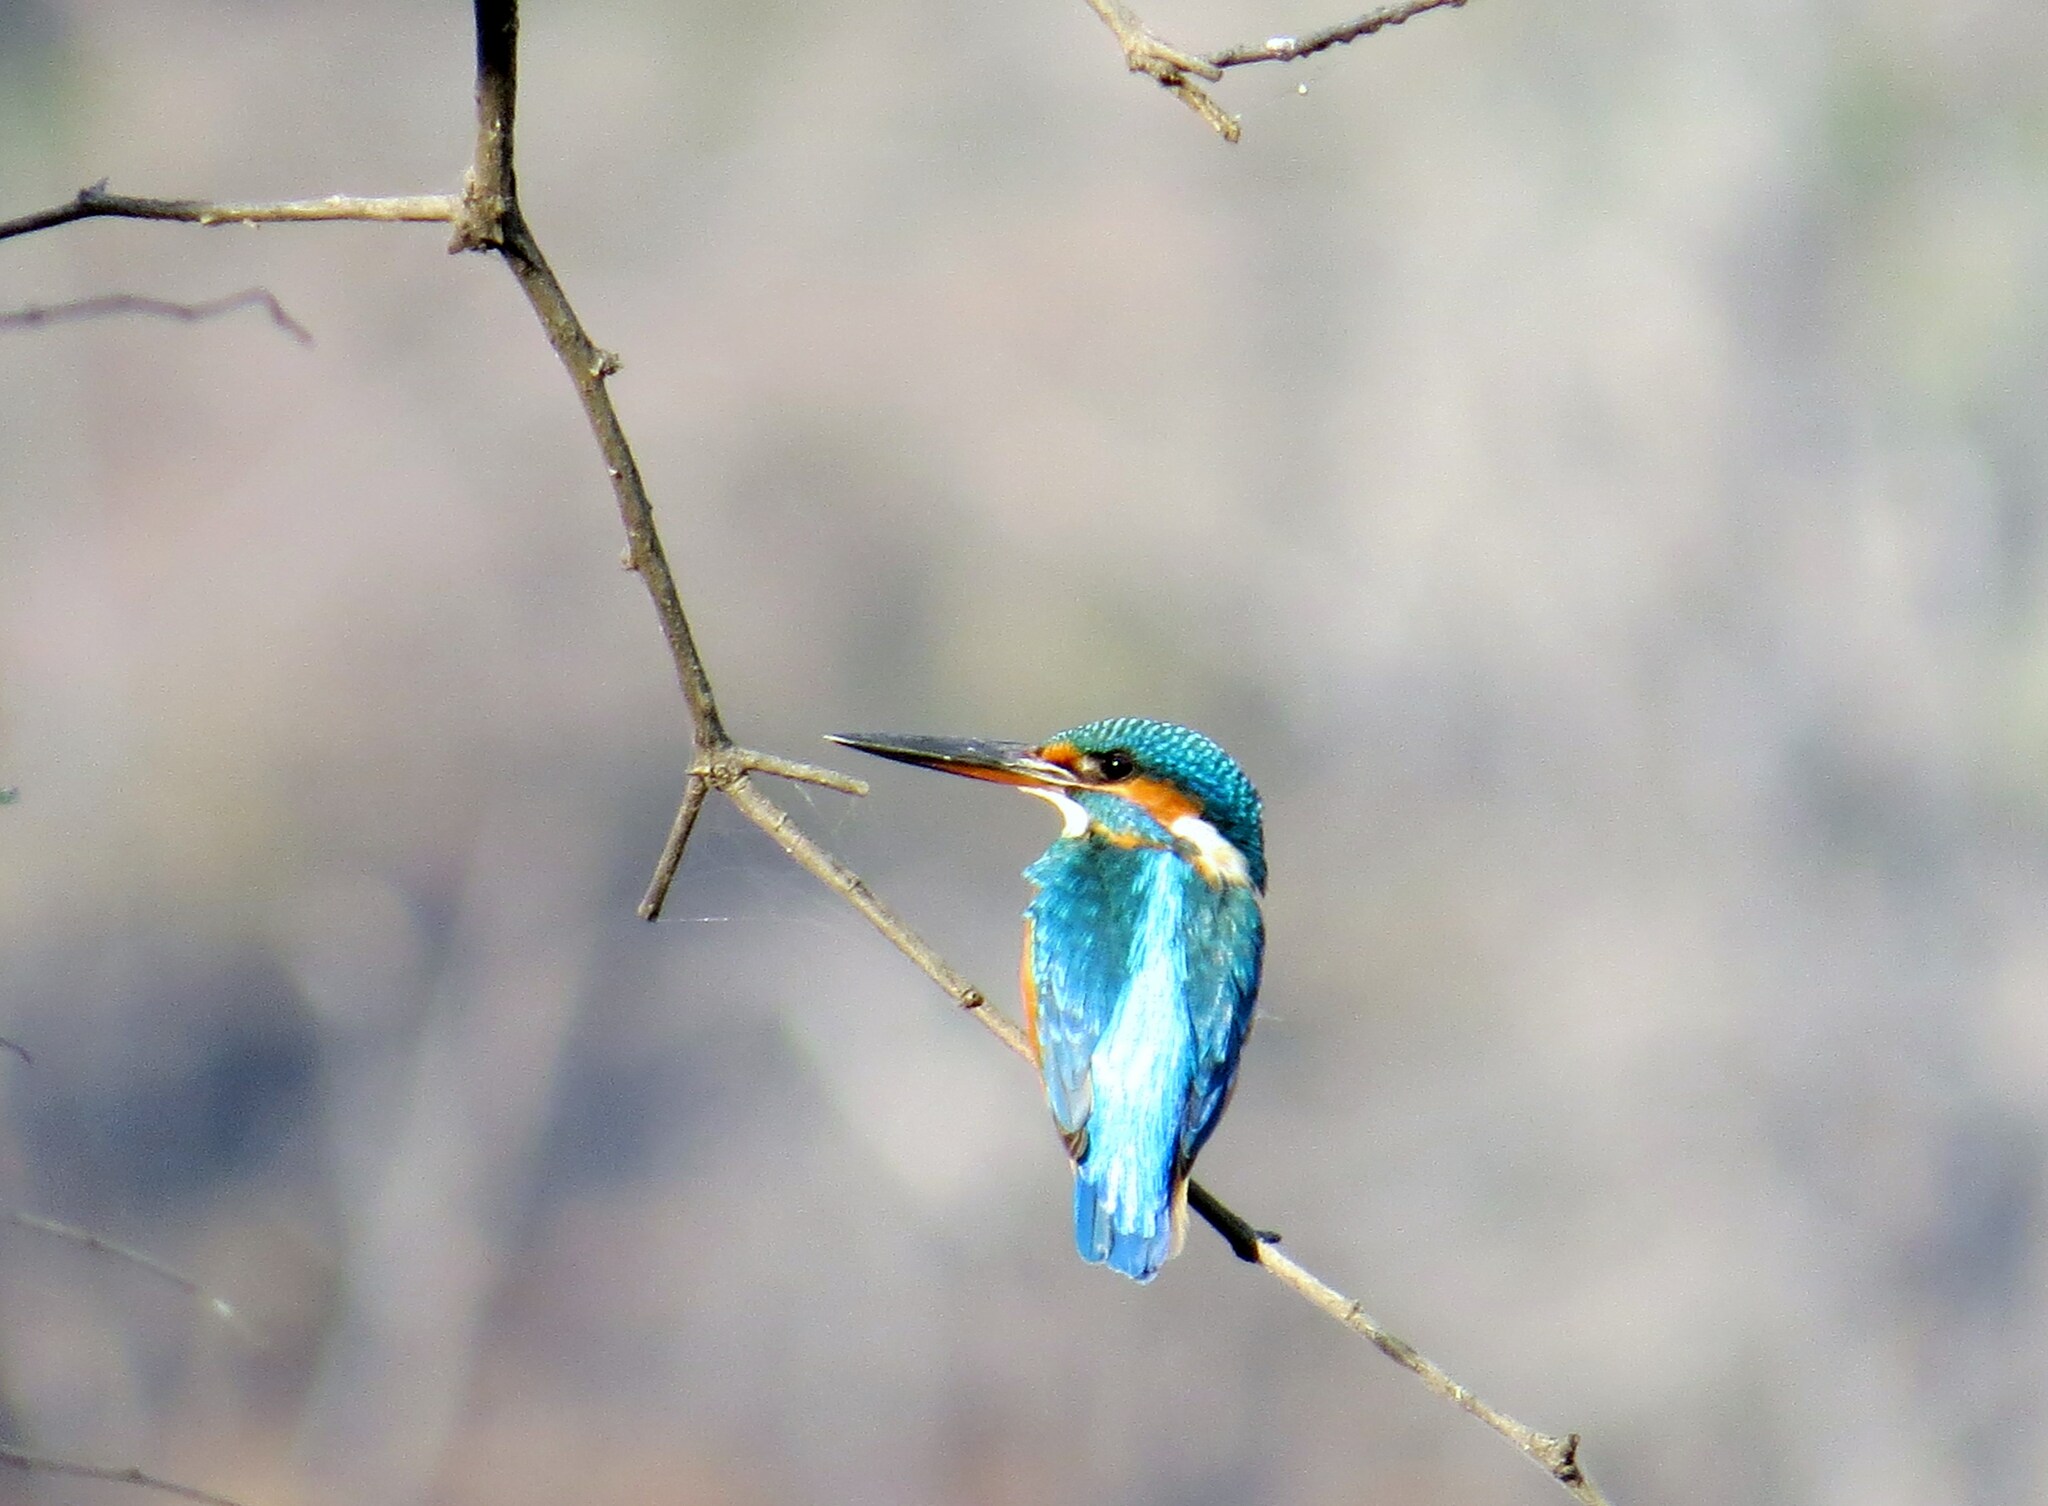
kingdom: Animalia
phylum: Chordata
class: Aves
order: Coraciiformes
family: Alcedinidae
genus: Alcedo
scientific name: Alcedo atthis
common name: Common kingfisher
